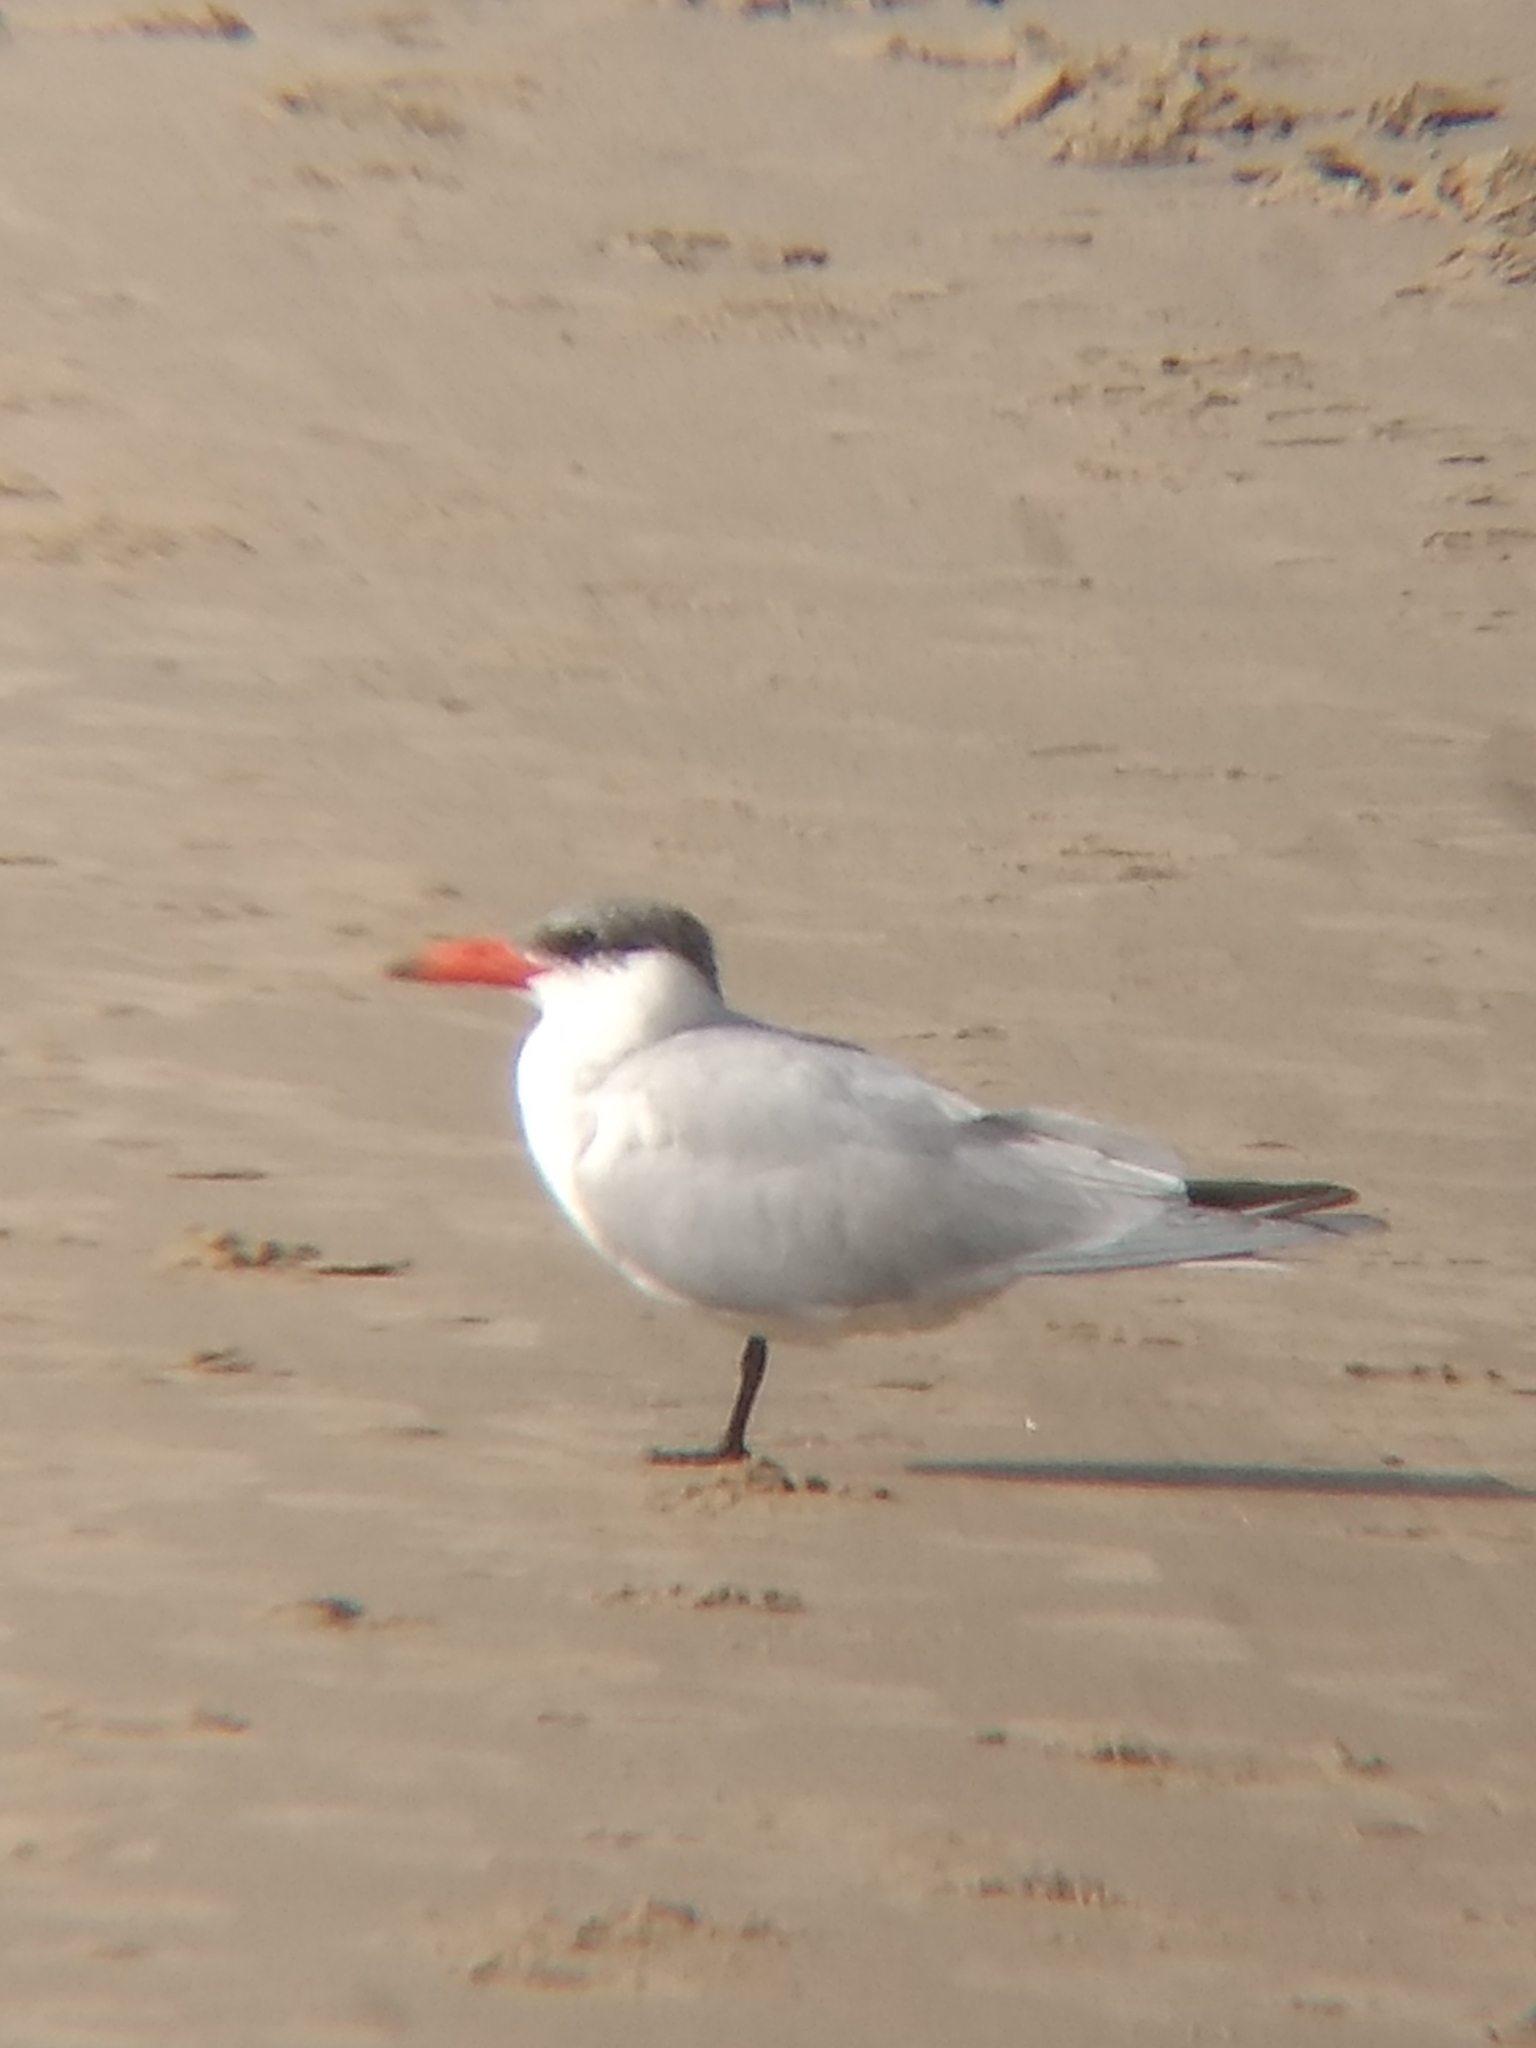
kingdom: Animalia
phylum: Chordata
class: Aves
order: Charadriiformes
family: Laridae
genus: Hydroprogne
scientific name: Hydroprogne caspia
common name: Caspian tern
